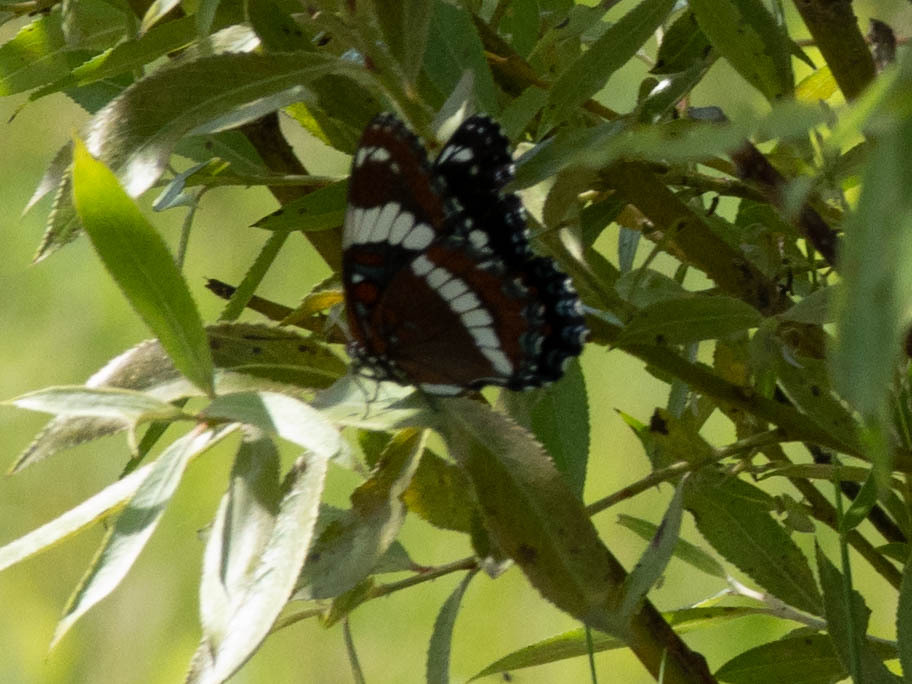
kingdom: Animalia
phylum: Arthropoda
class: Insecta
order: Lepidoptera
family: Nymphalidae
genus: Limenitis
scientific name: Limenitis arthemis
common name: Red-spotted admiral
